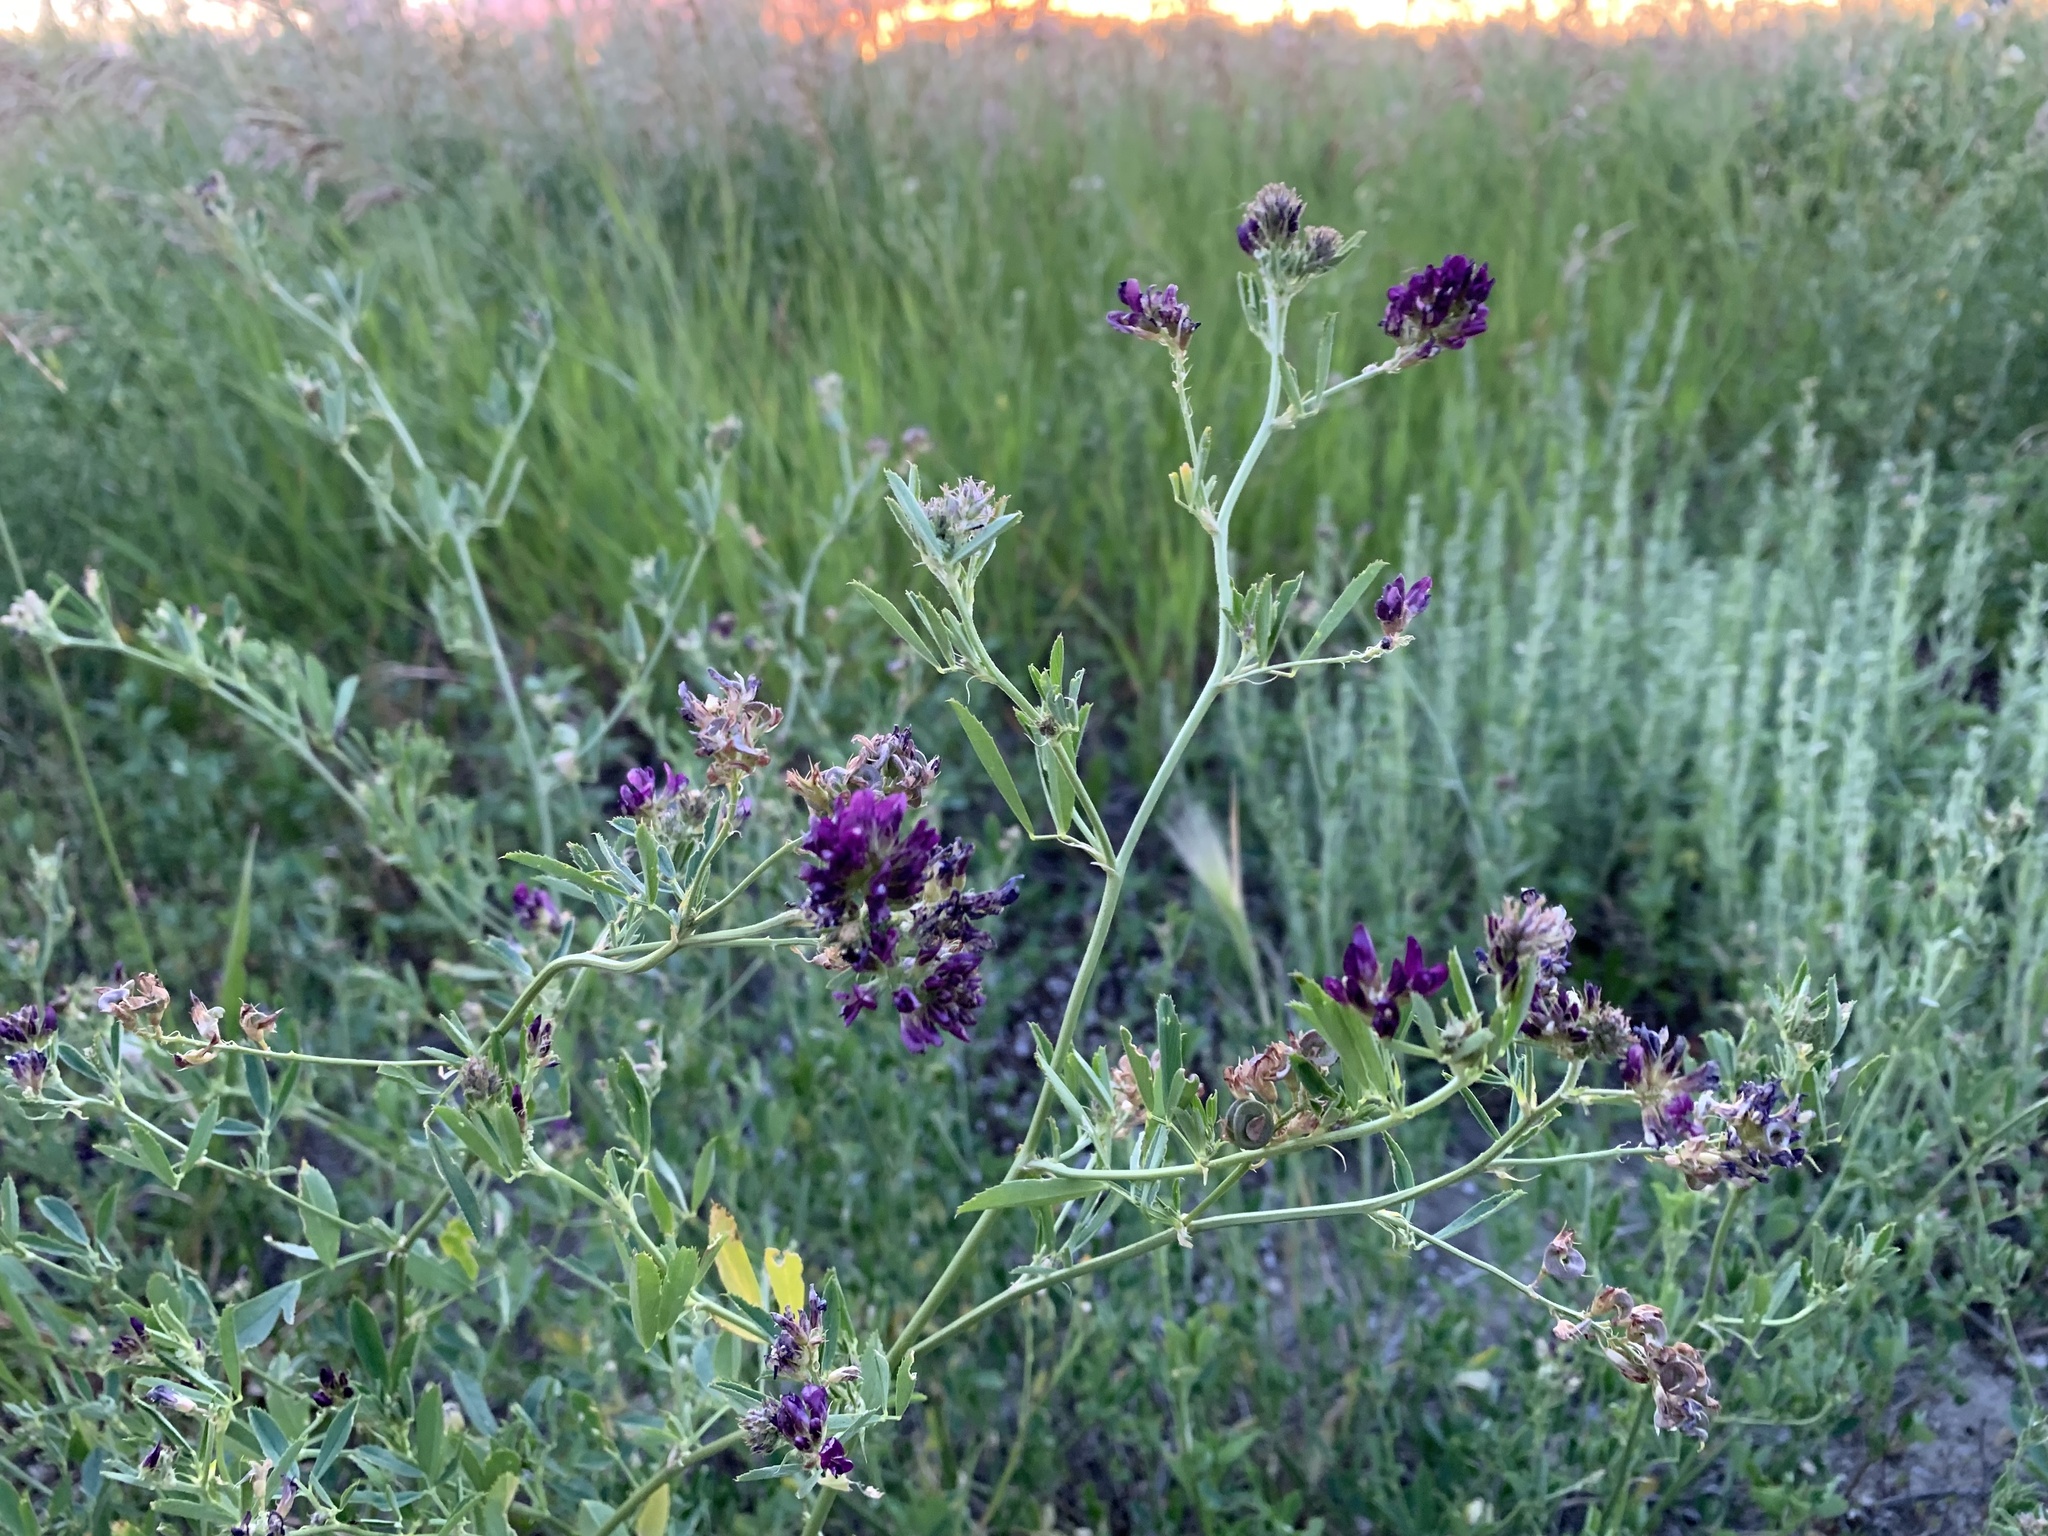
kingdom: Plantae
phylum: Tracheophyta
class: Magnoliopsida
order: Fabales
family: Fabaceae
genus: Medicago
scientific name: Medicago sativa
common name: Alfalfa
